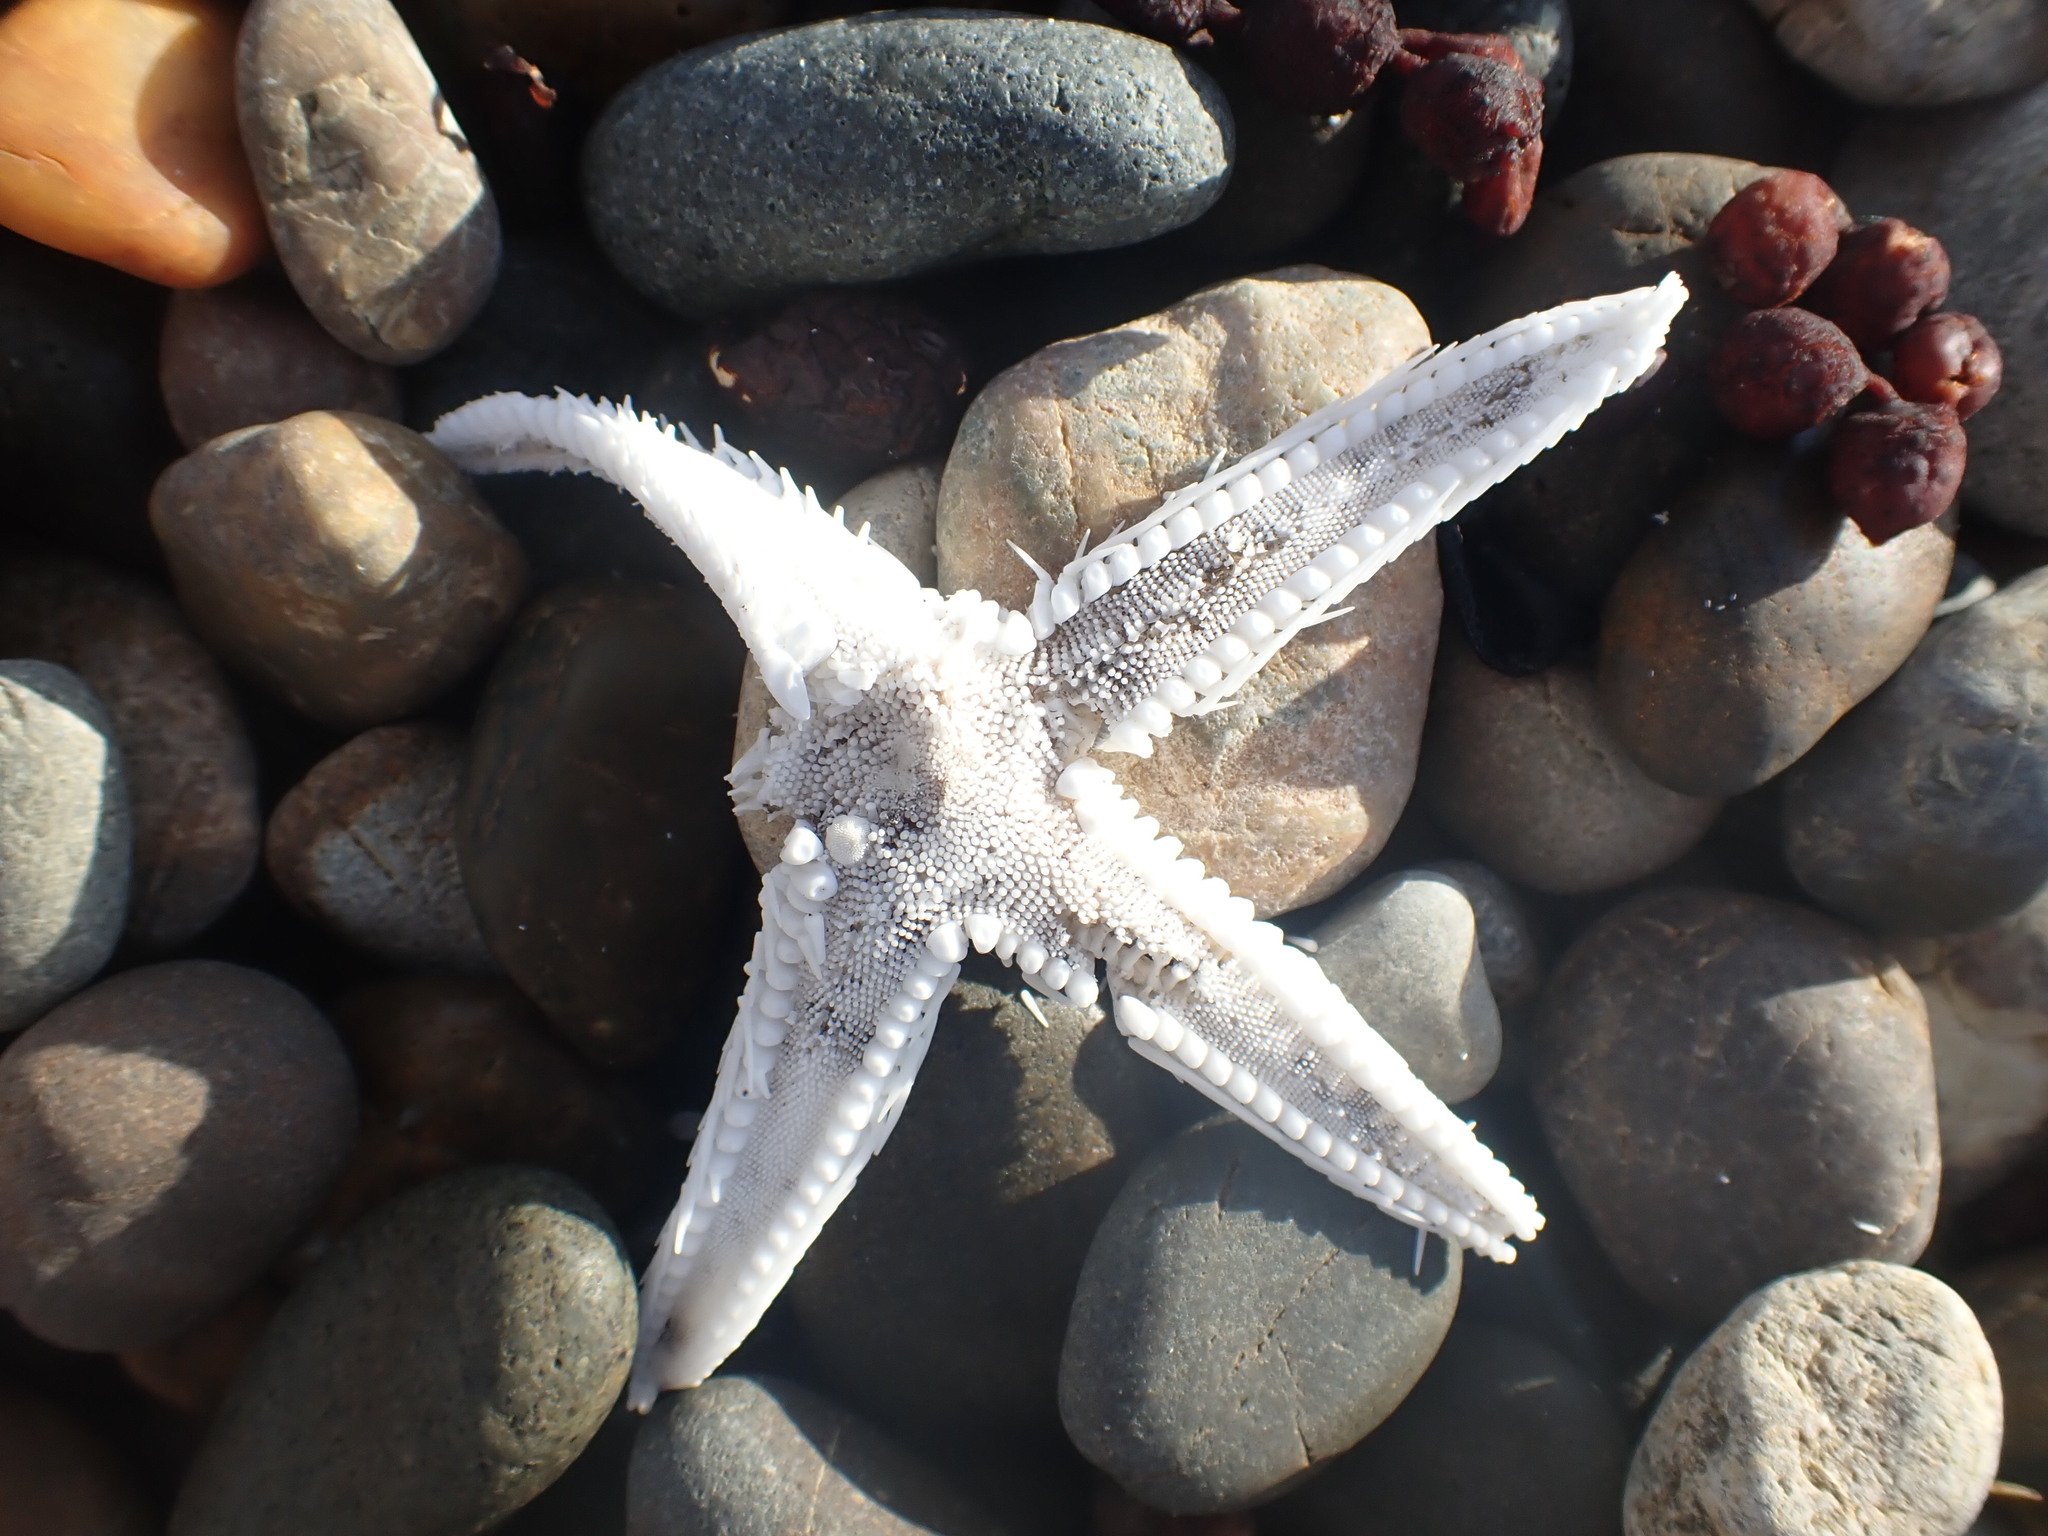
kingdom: Animalia
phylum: Echinodermata
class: Asteroidea
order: Paxillosida
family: Astropectinidae
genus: Astropecten
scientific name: Astropecten polyacanthus
